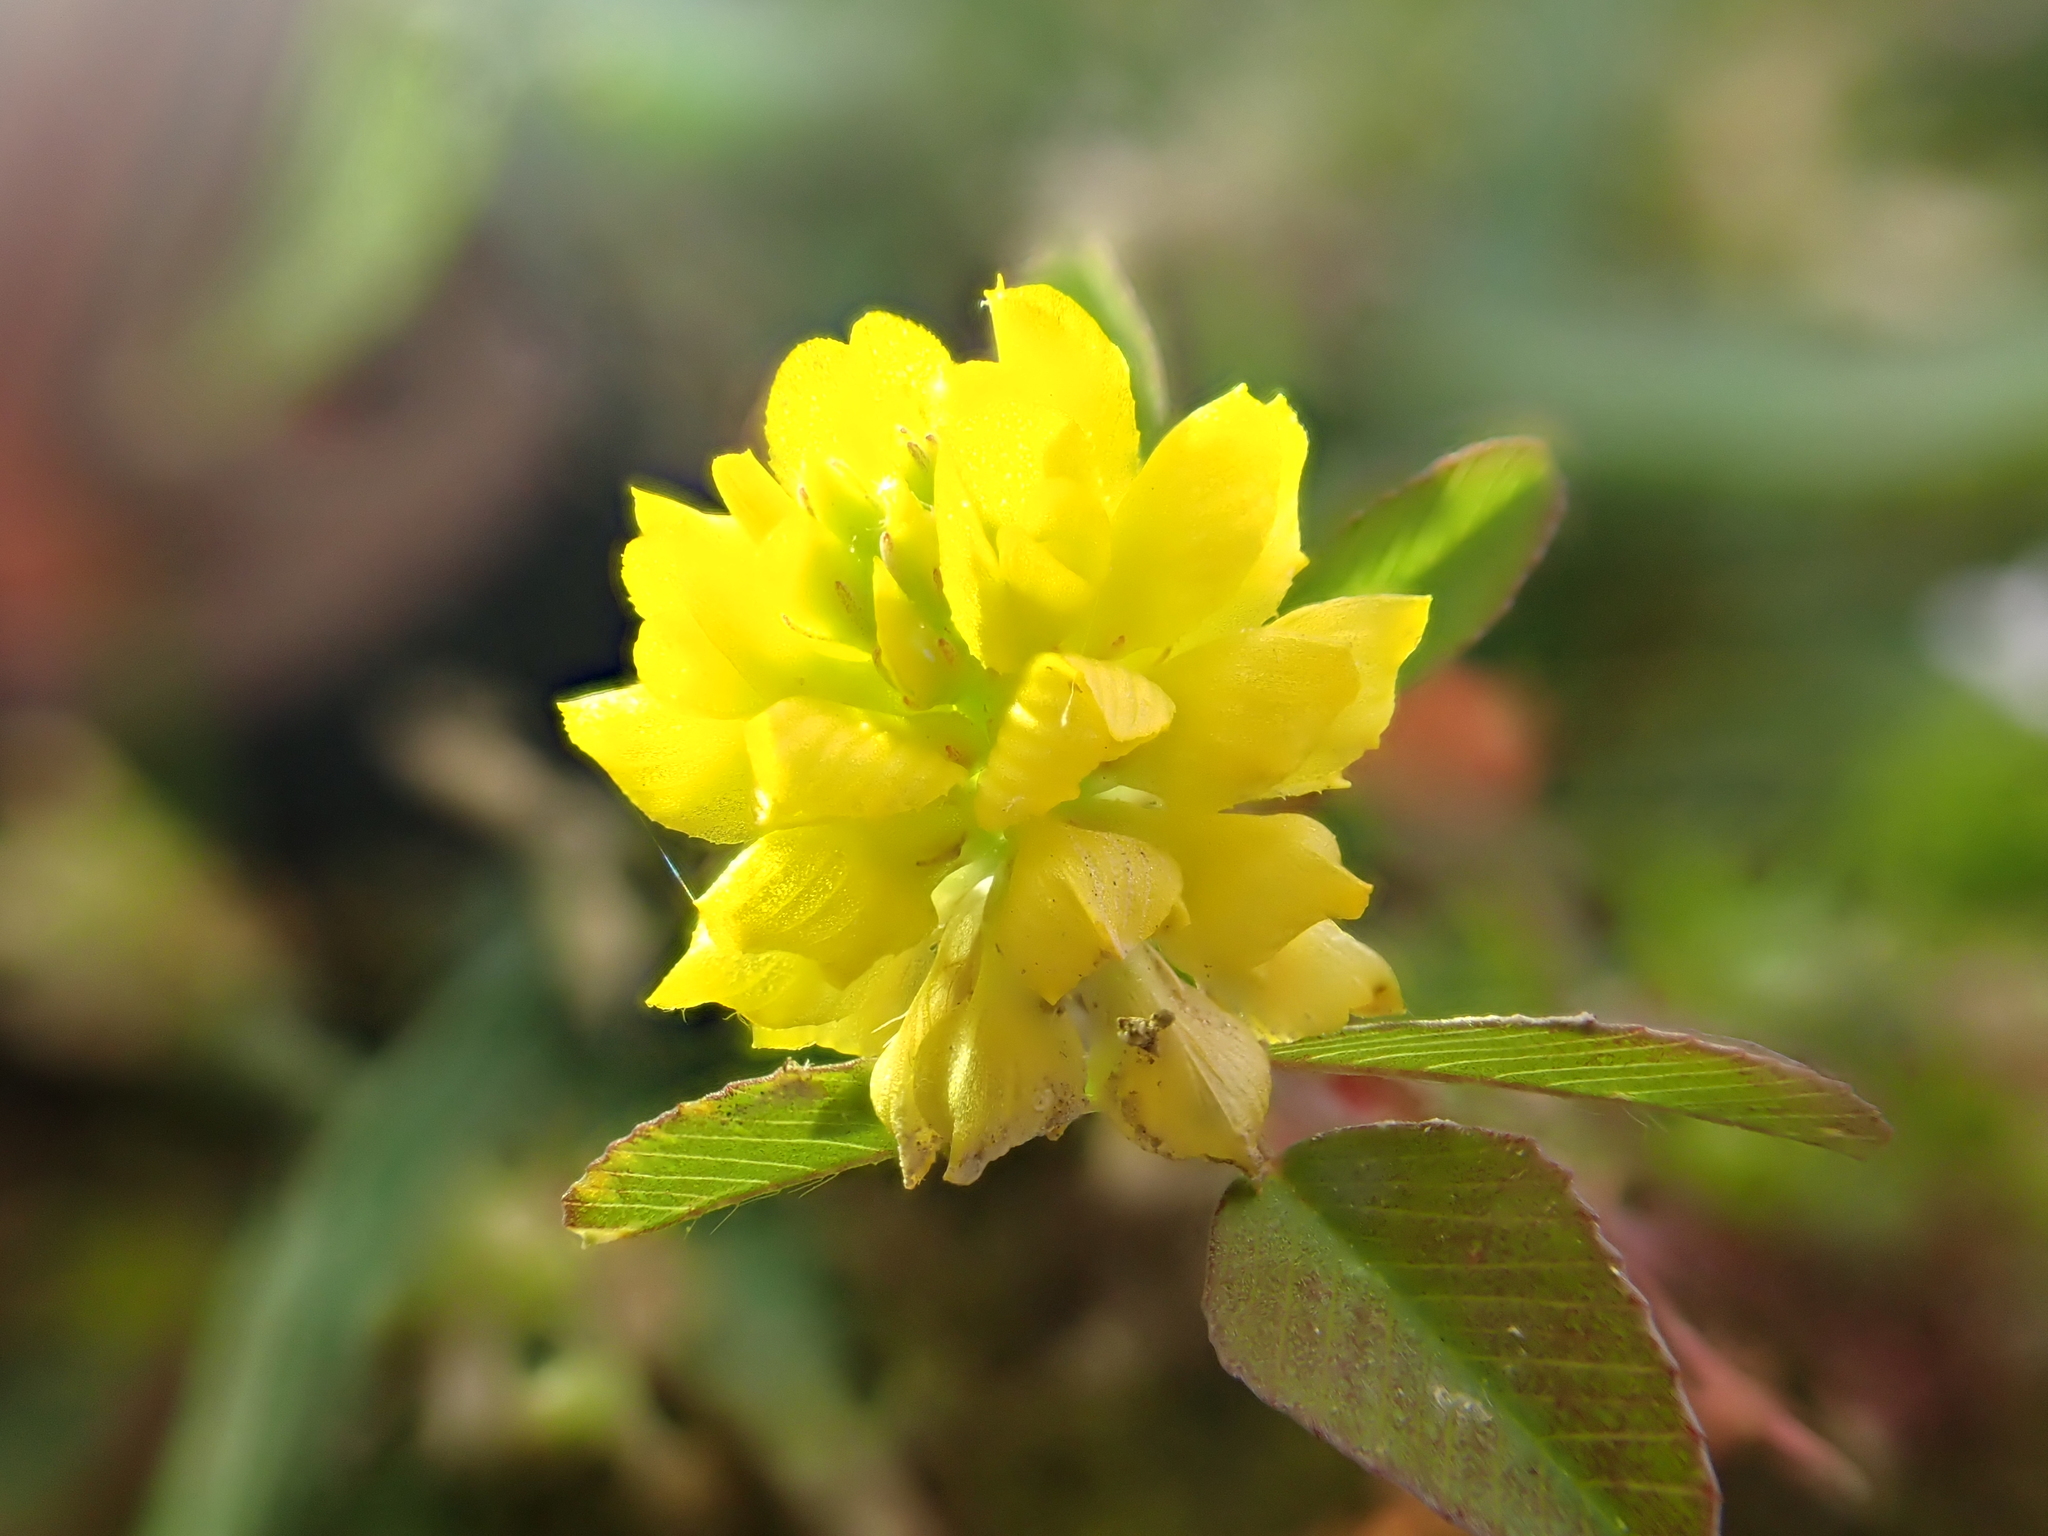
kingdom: Plantae
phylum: Tracheophyta
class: Magnoliopsida
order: Fabales
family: Fabaceae
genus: Trifolium
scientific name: Trifolium campestre
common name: Field clover
